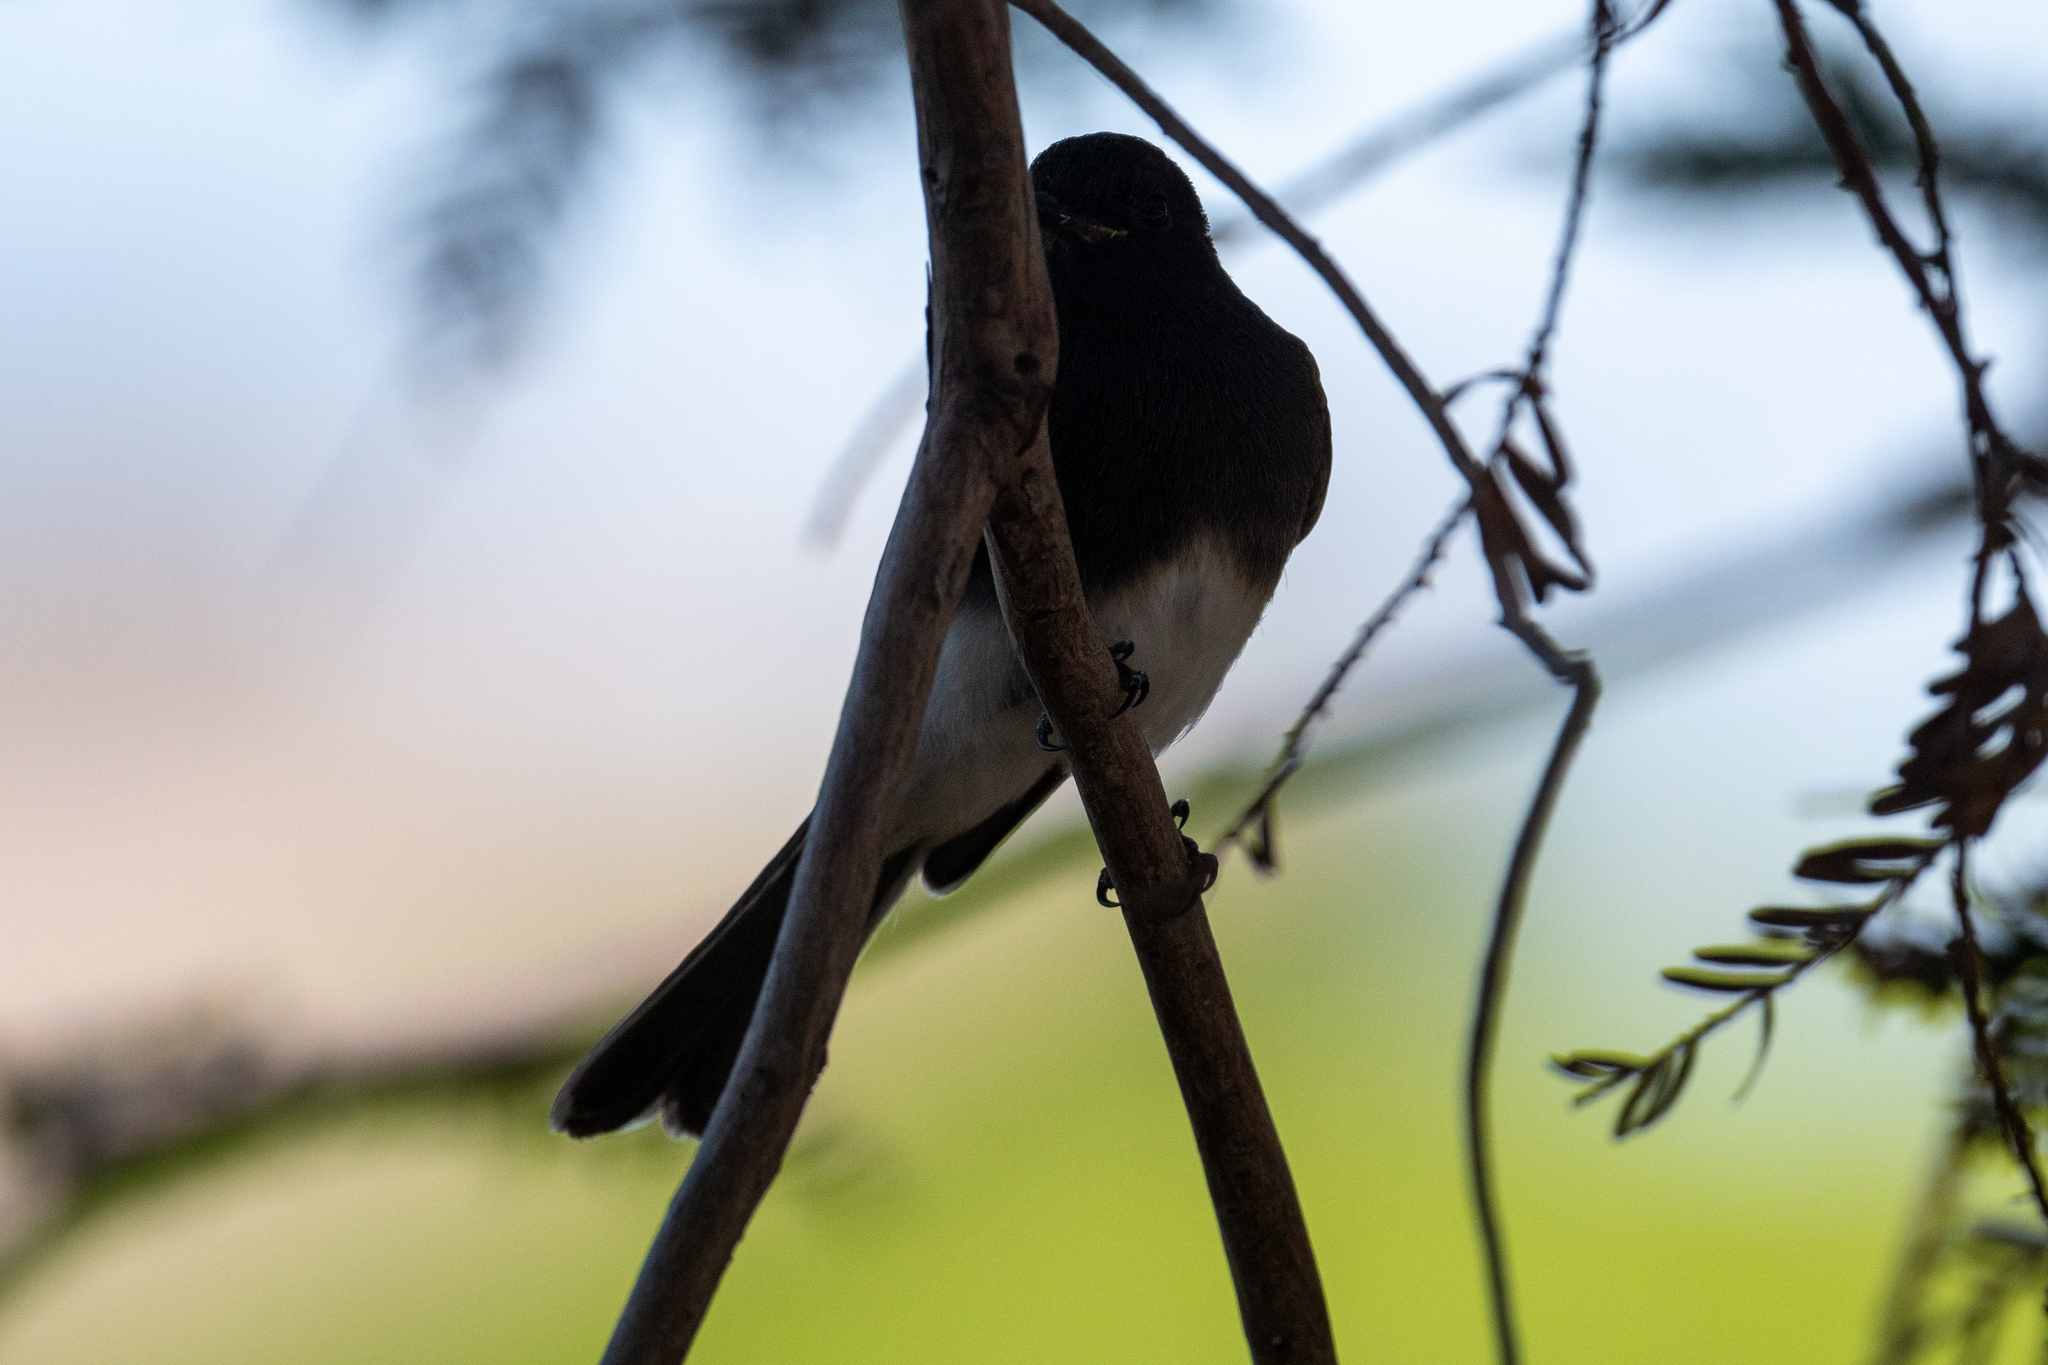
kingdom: Animalia
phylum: Chordata
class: Aves
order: Passeriformes
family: Tyrannidae
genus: Sayornis
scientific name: Sayornis nigricans
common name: Black phoebe
